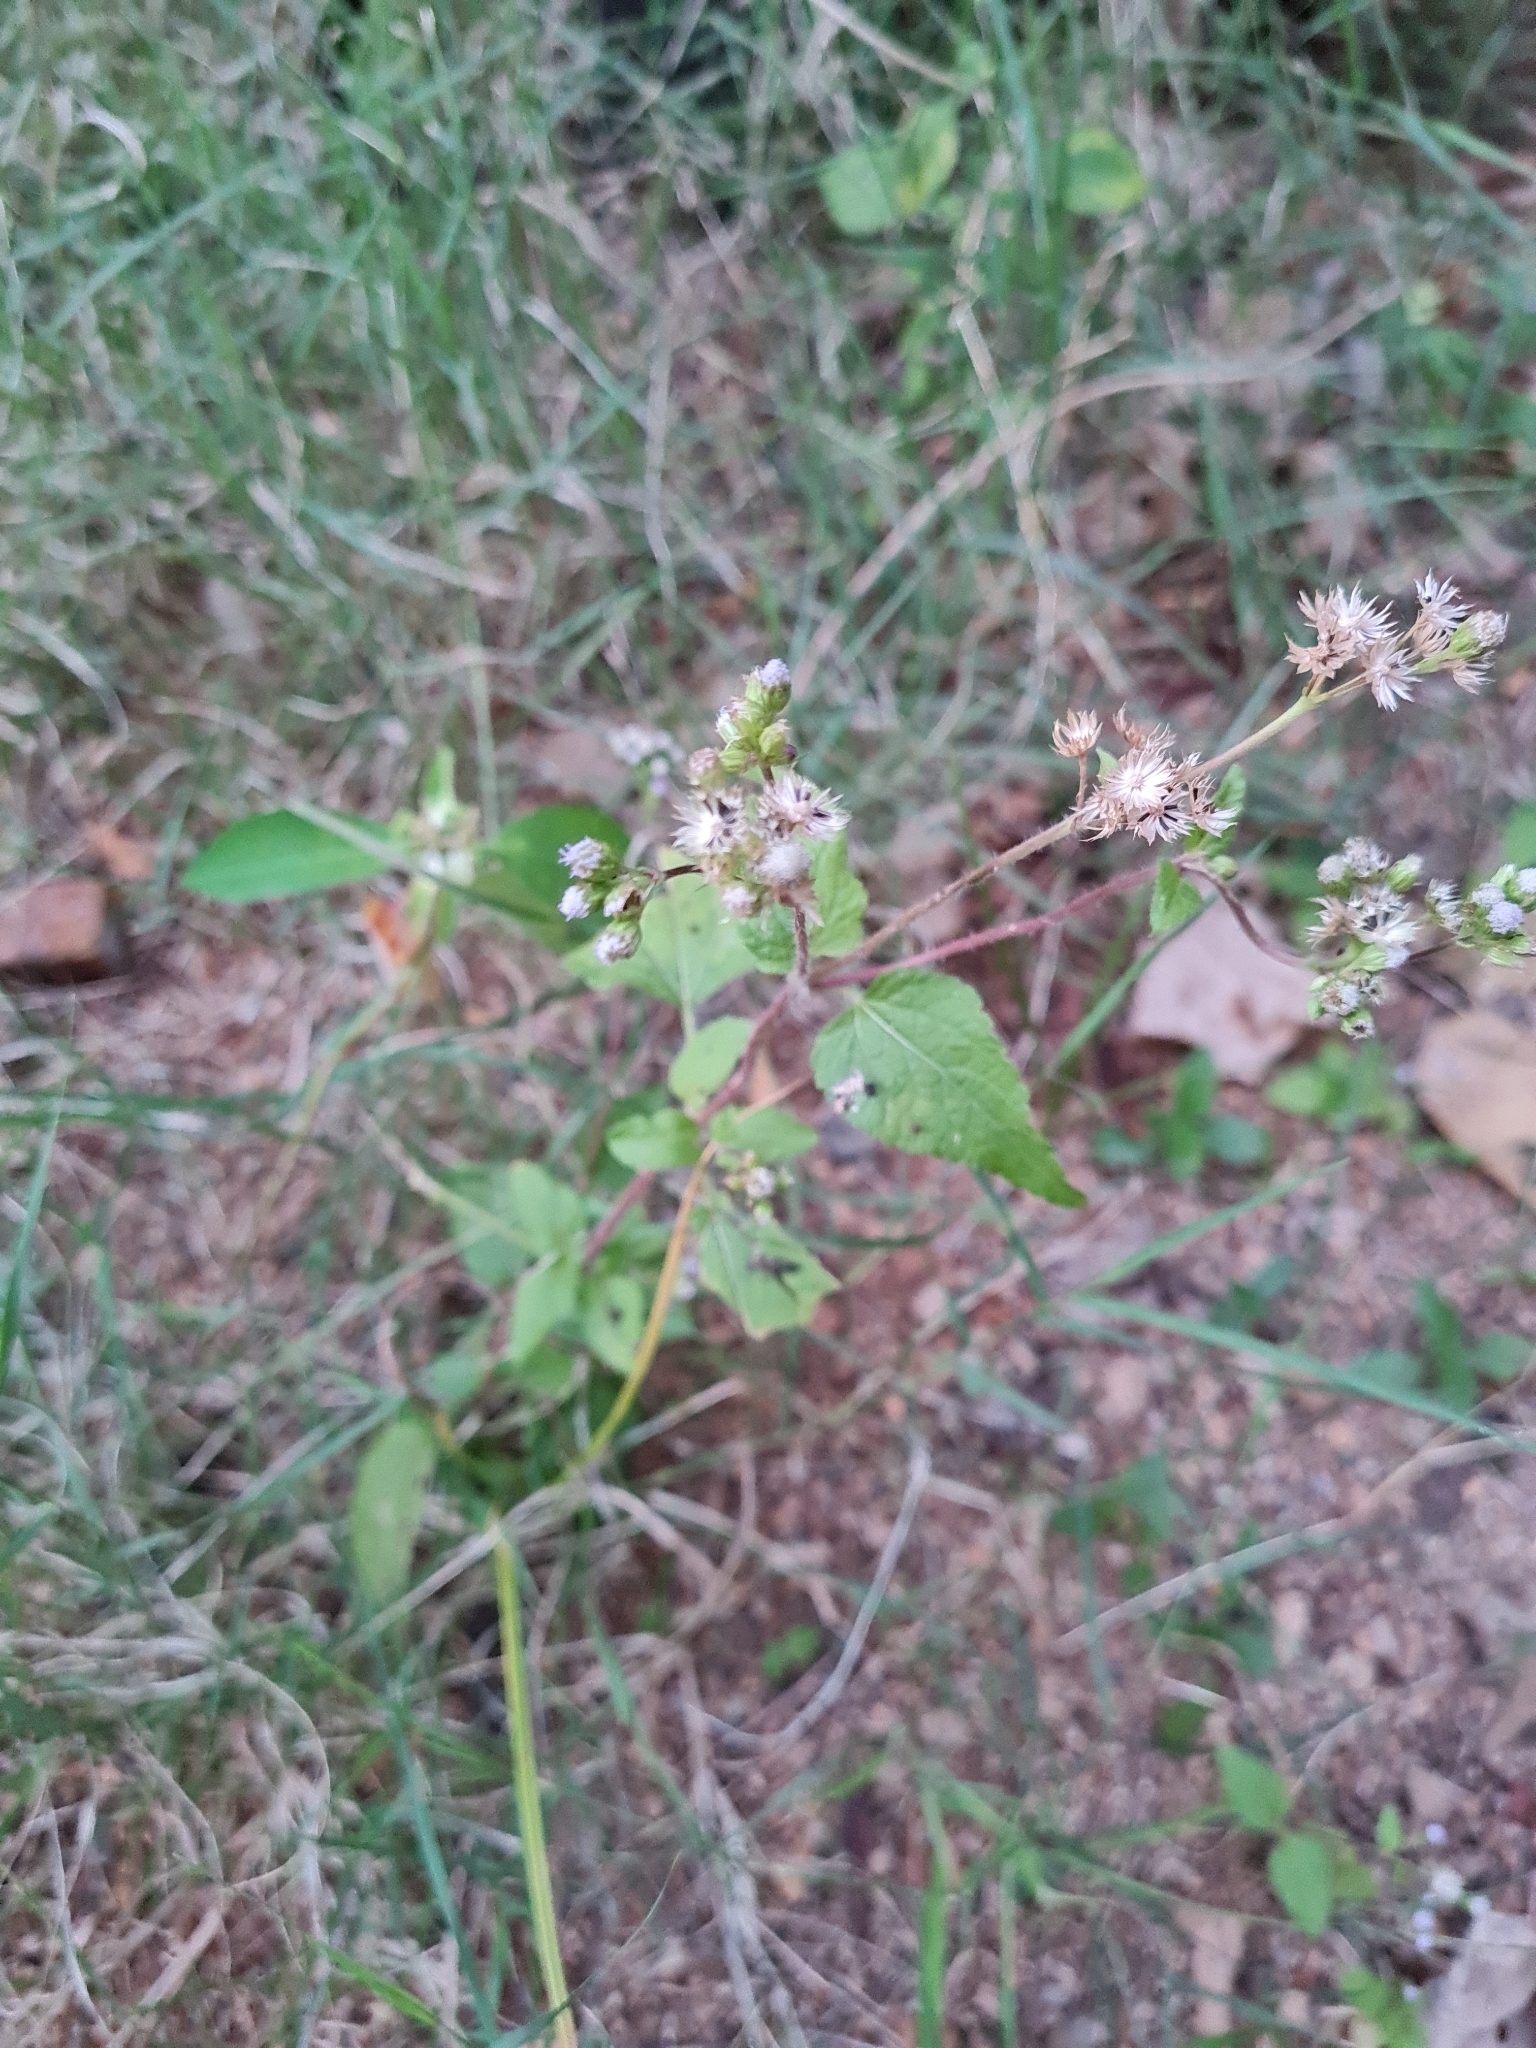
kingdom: Plantae
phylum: Tracheophyta
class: Magnoliopsida
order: Asterales
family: Asteraceae
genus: Ageratum
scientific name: Ageratum conyzoides
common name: Tropical whiteweed
